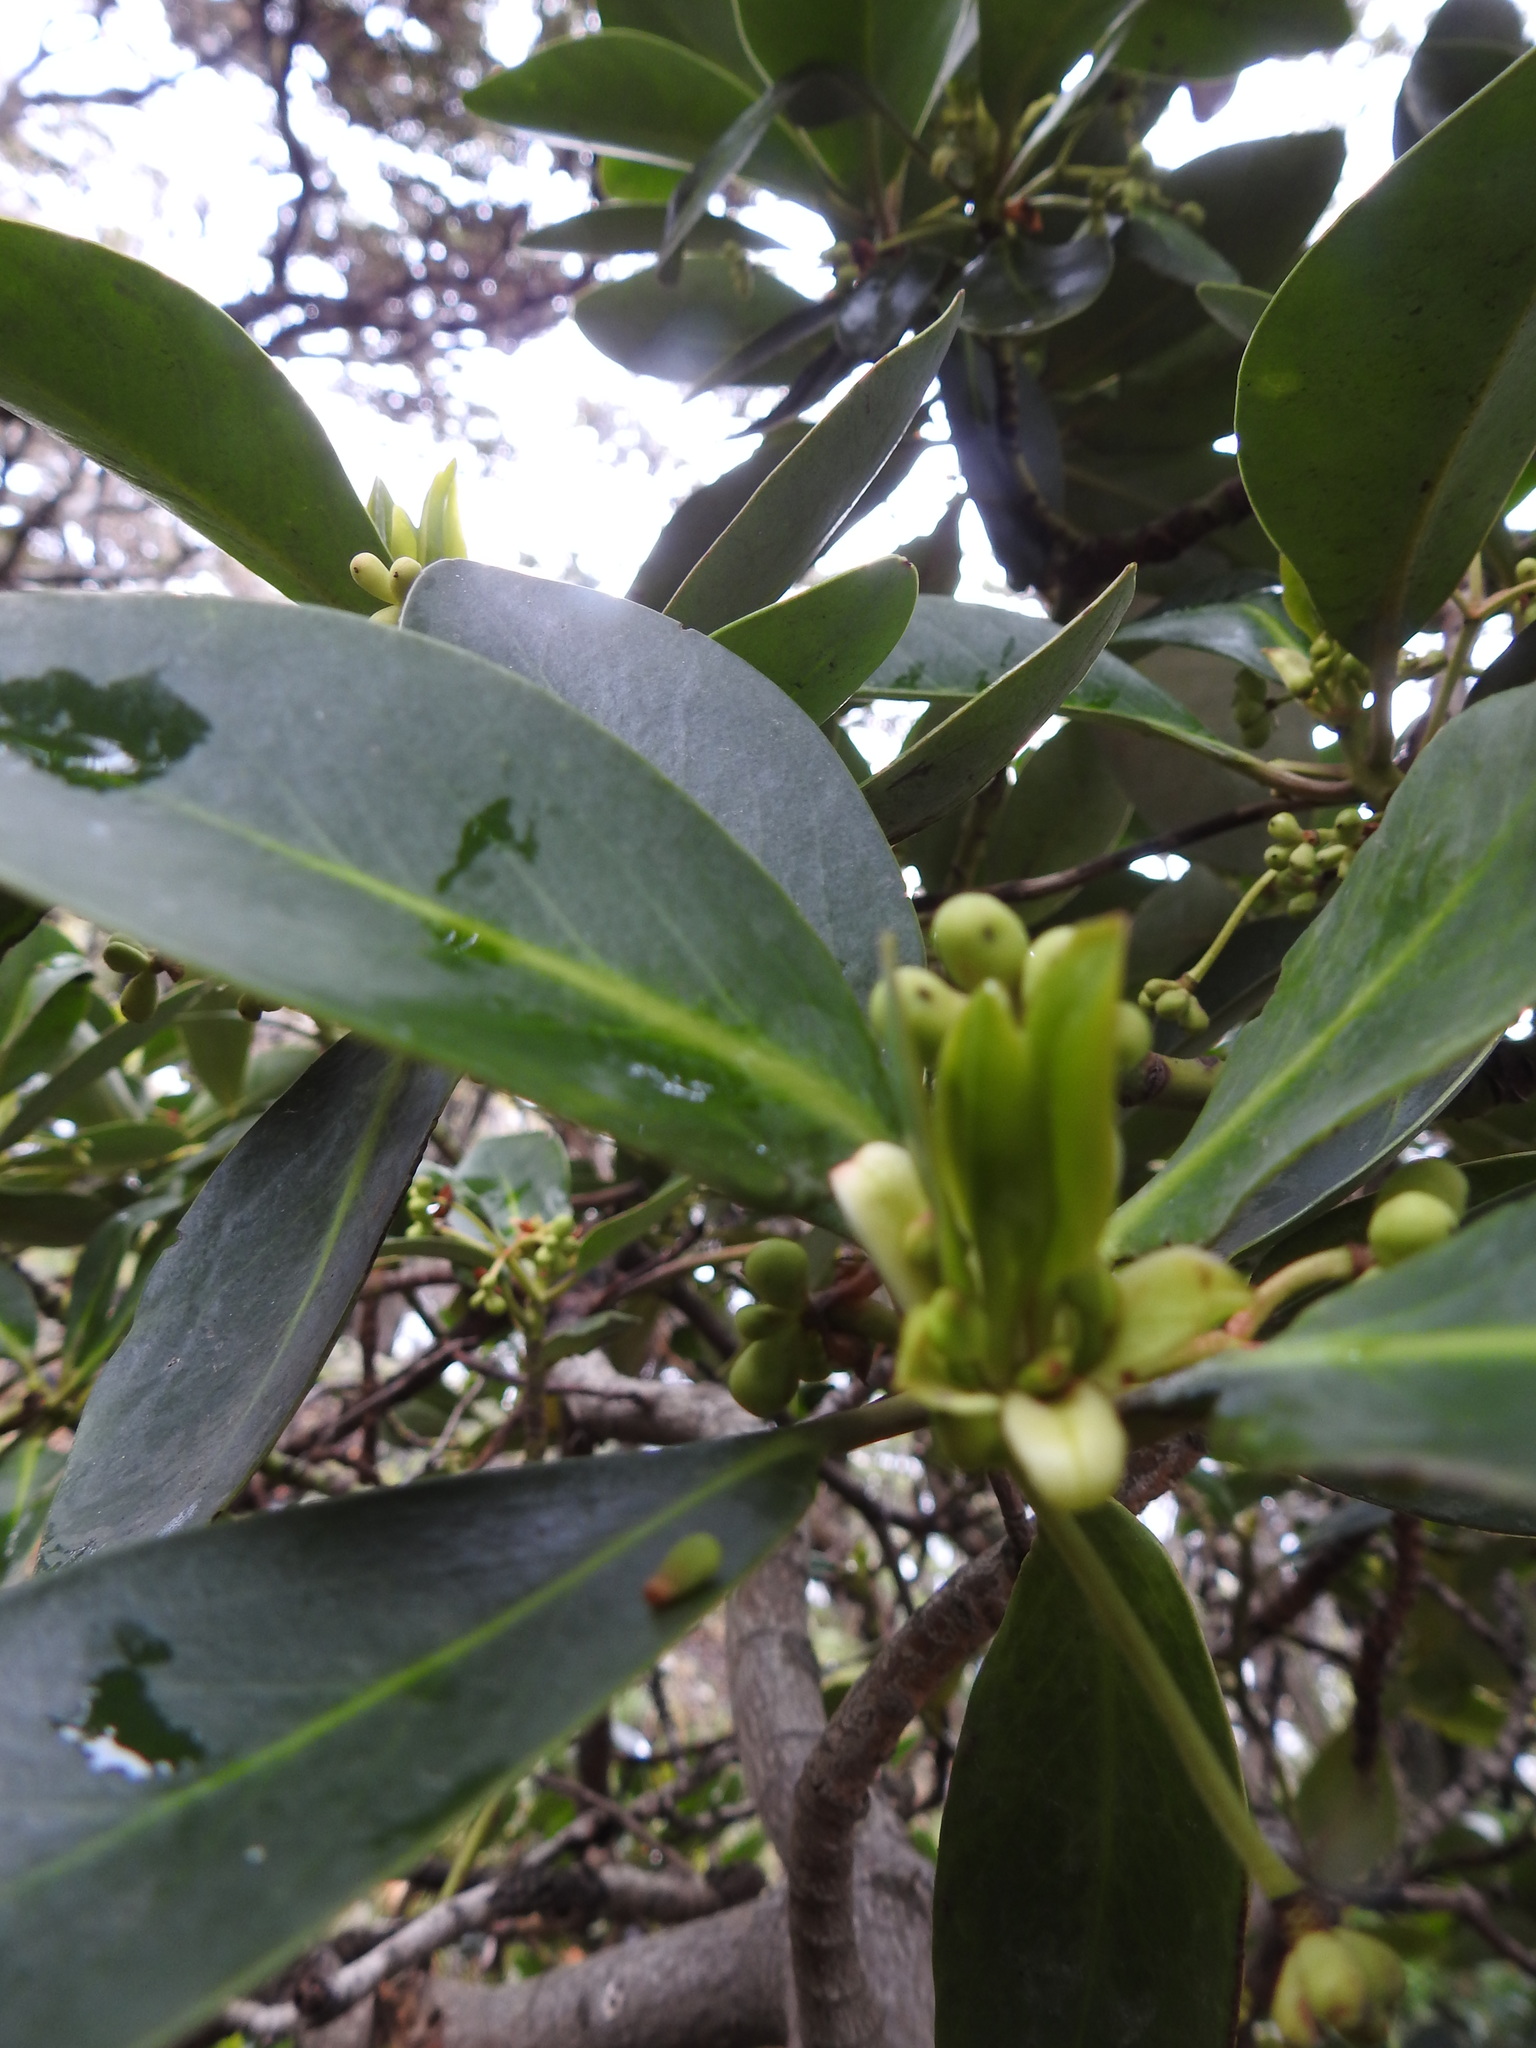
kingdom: Plantae
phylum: Tracheophyta
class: Magnoliopsida
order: Canellales
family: Winteraceae
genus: Drimys
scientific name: Drimys winteri
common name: Winter's-bark
